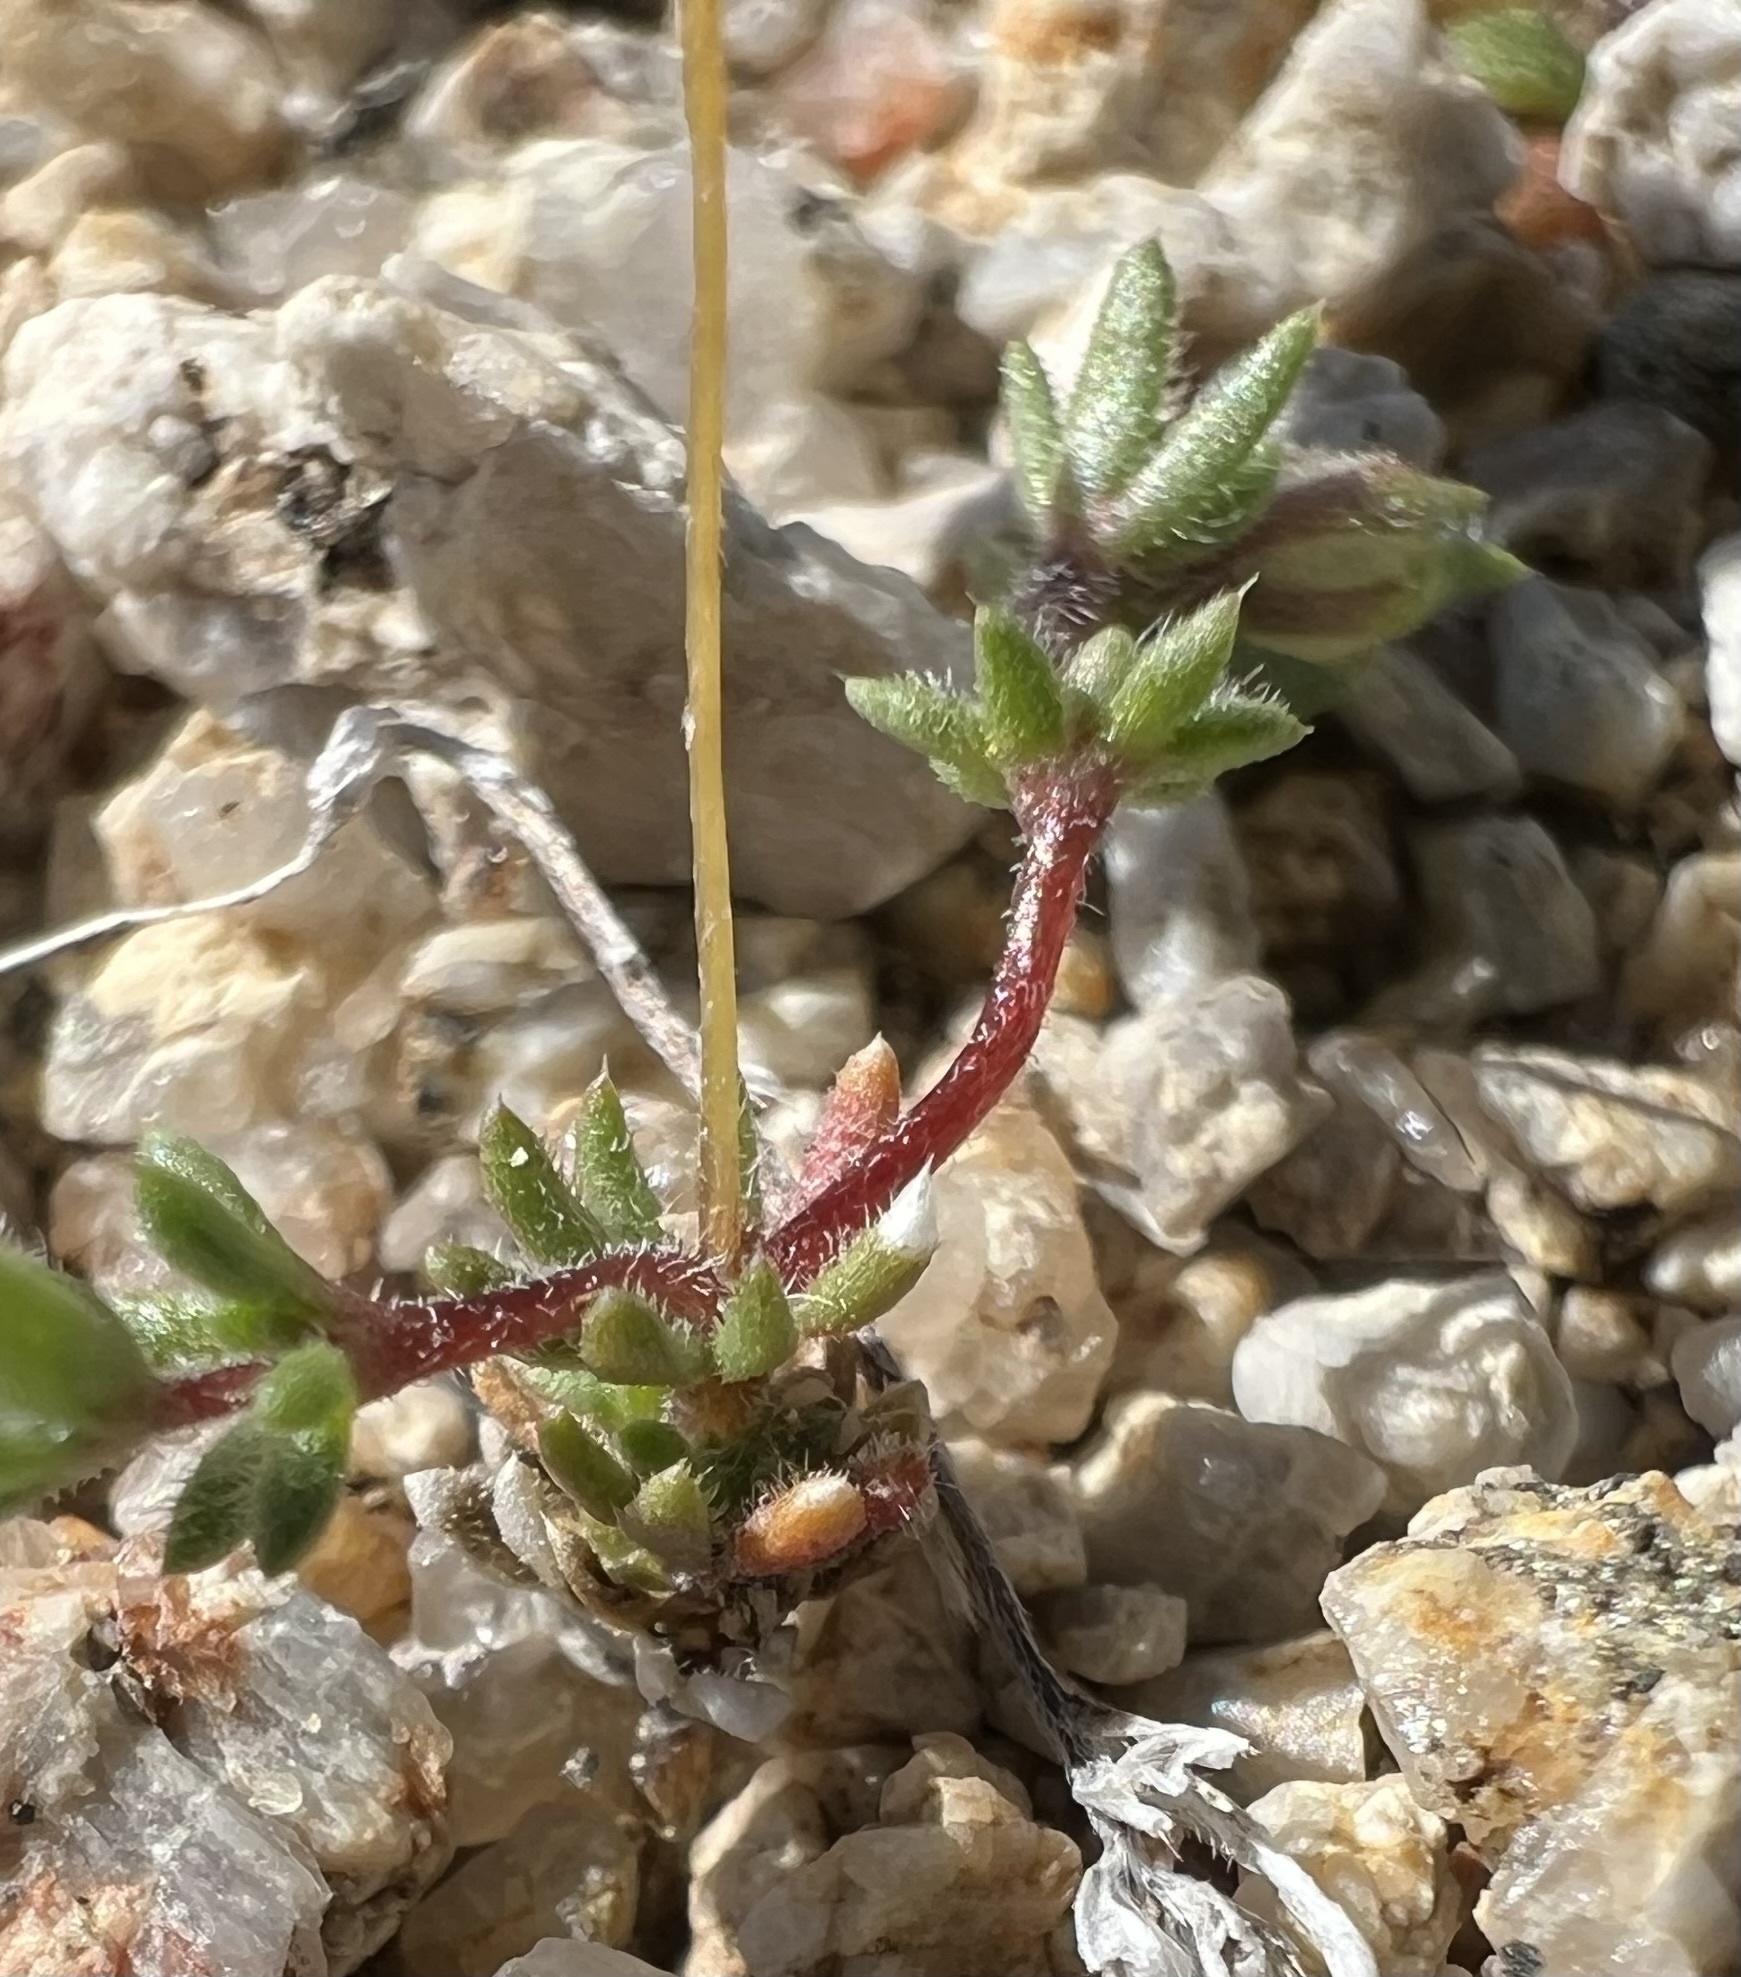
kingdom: Plantae
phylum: Tracheophyta
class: Magnoliopsida
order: Ericales
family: Polemoniaceae
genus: Leptosiphon
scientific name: Leptosiphon chrysanthus
